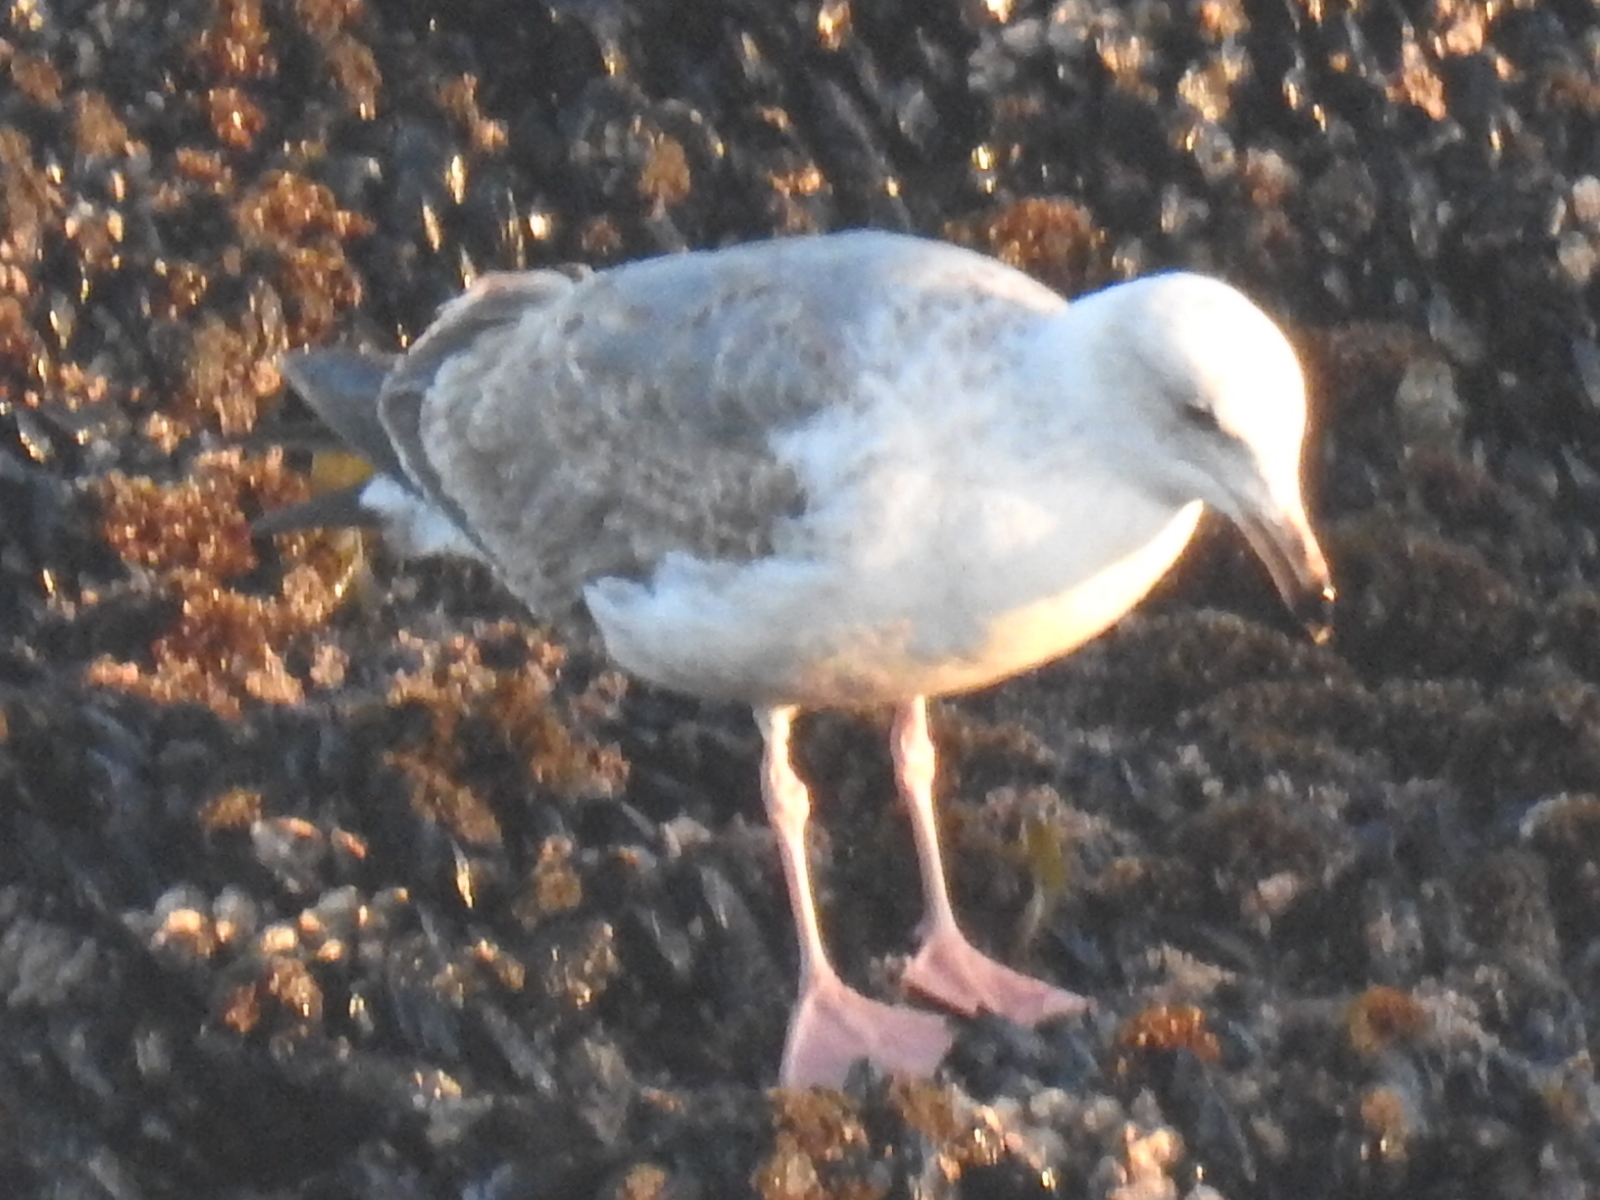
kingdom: Animalia
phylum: Chordata
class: Aves
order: Charadriiformes
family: Laridae
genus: Larus
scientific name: Larus occidentalis
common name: Western gull
